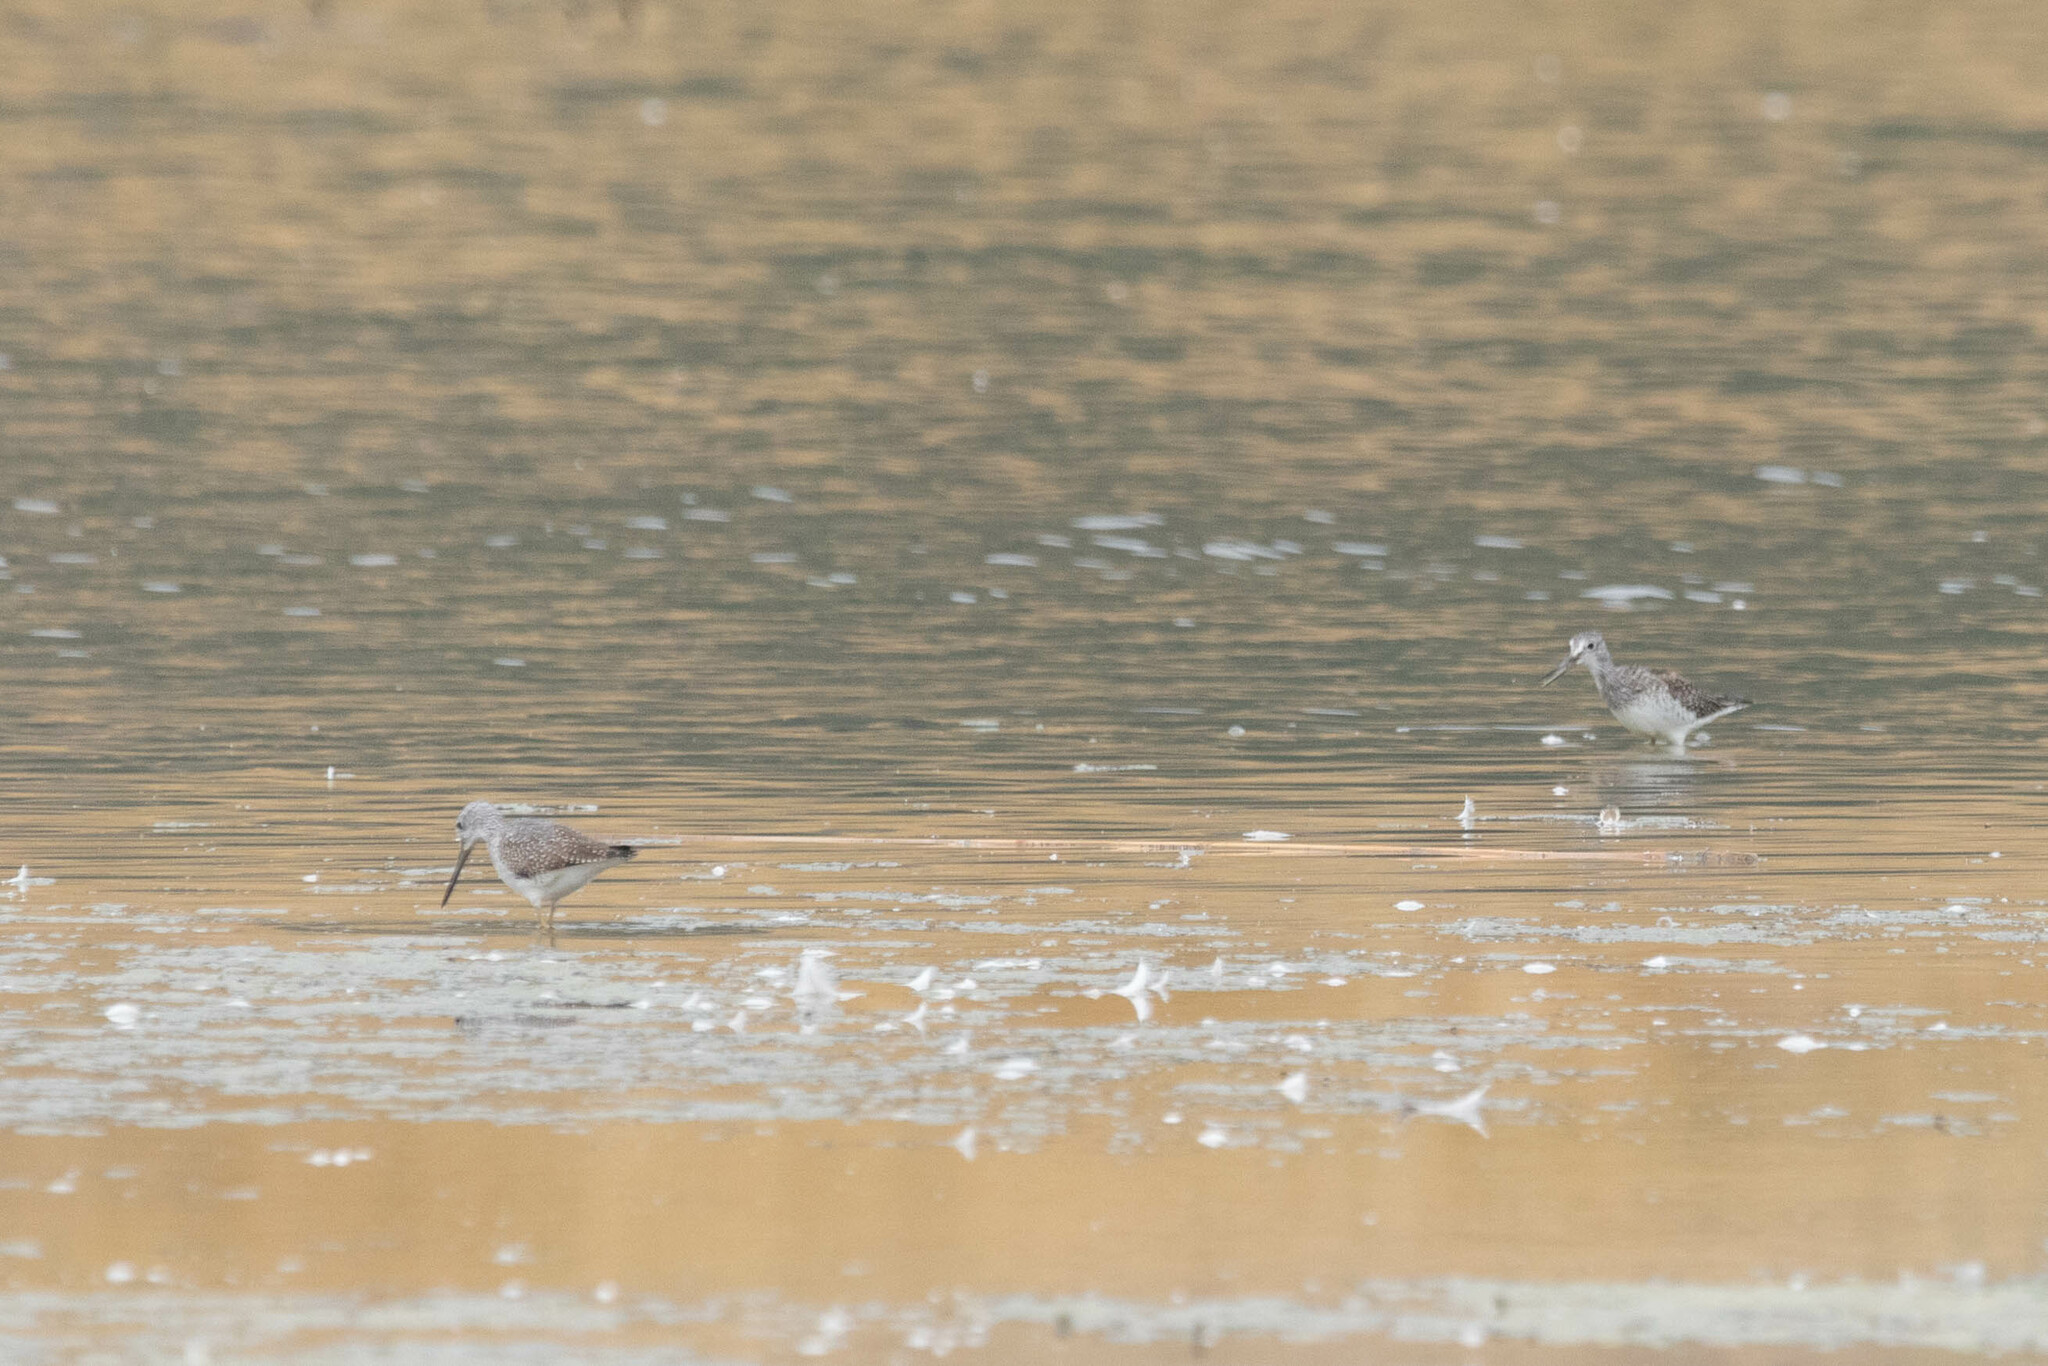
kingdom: Animalia
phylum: Chordata
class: Aves
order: Charadriiformes
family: Scolopacidae
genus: Tringa
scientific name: Tringa melanoleuca
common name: Greater yellowlegs
